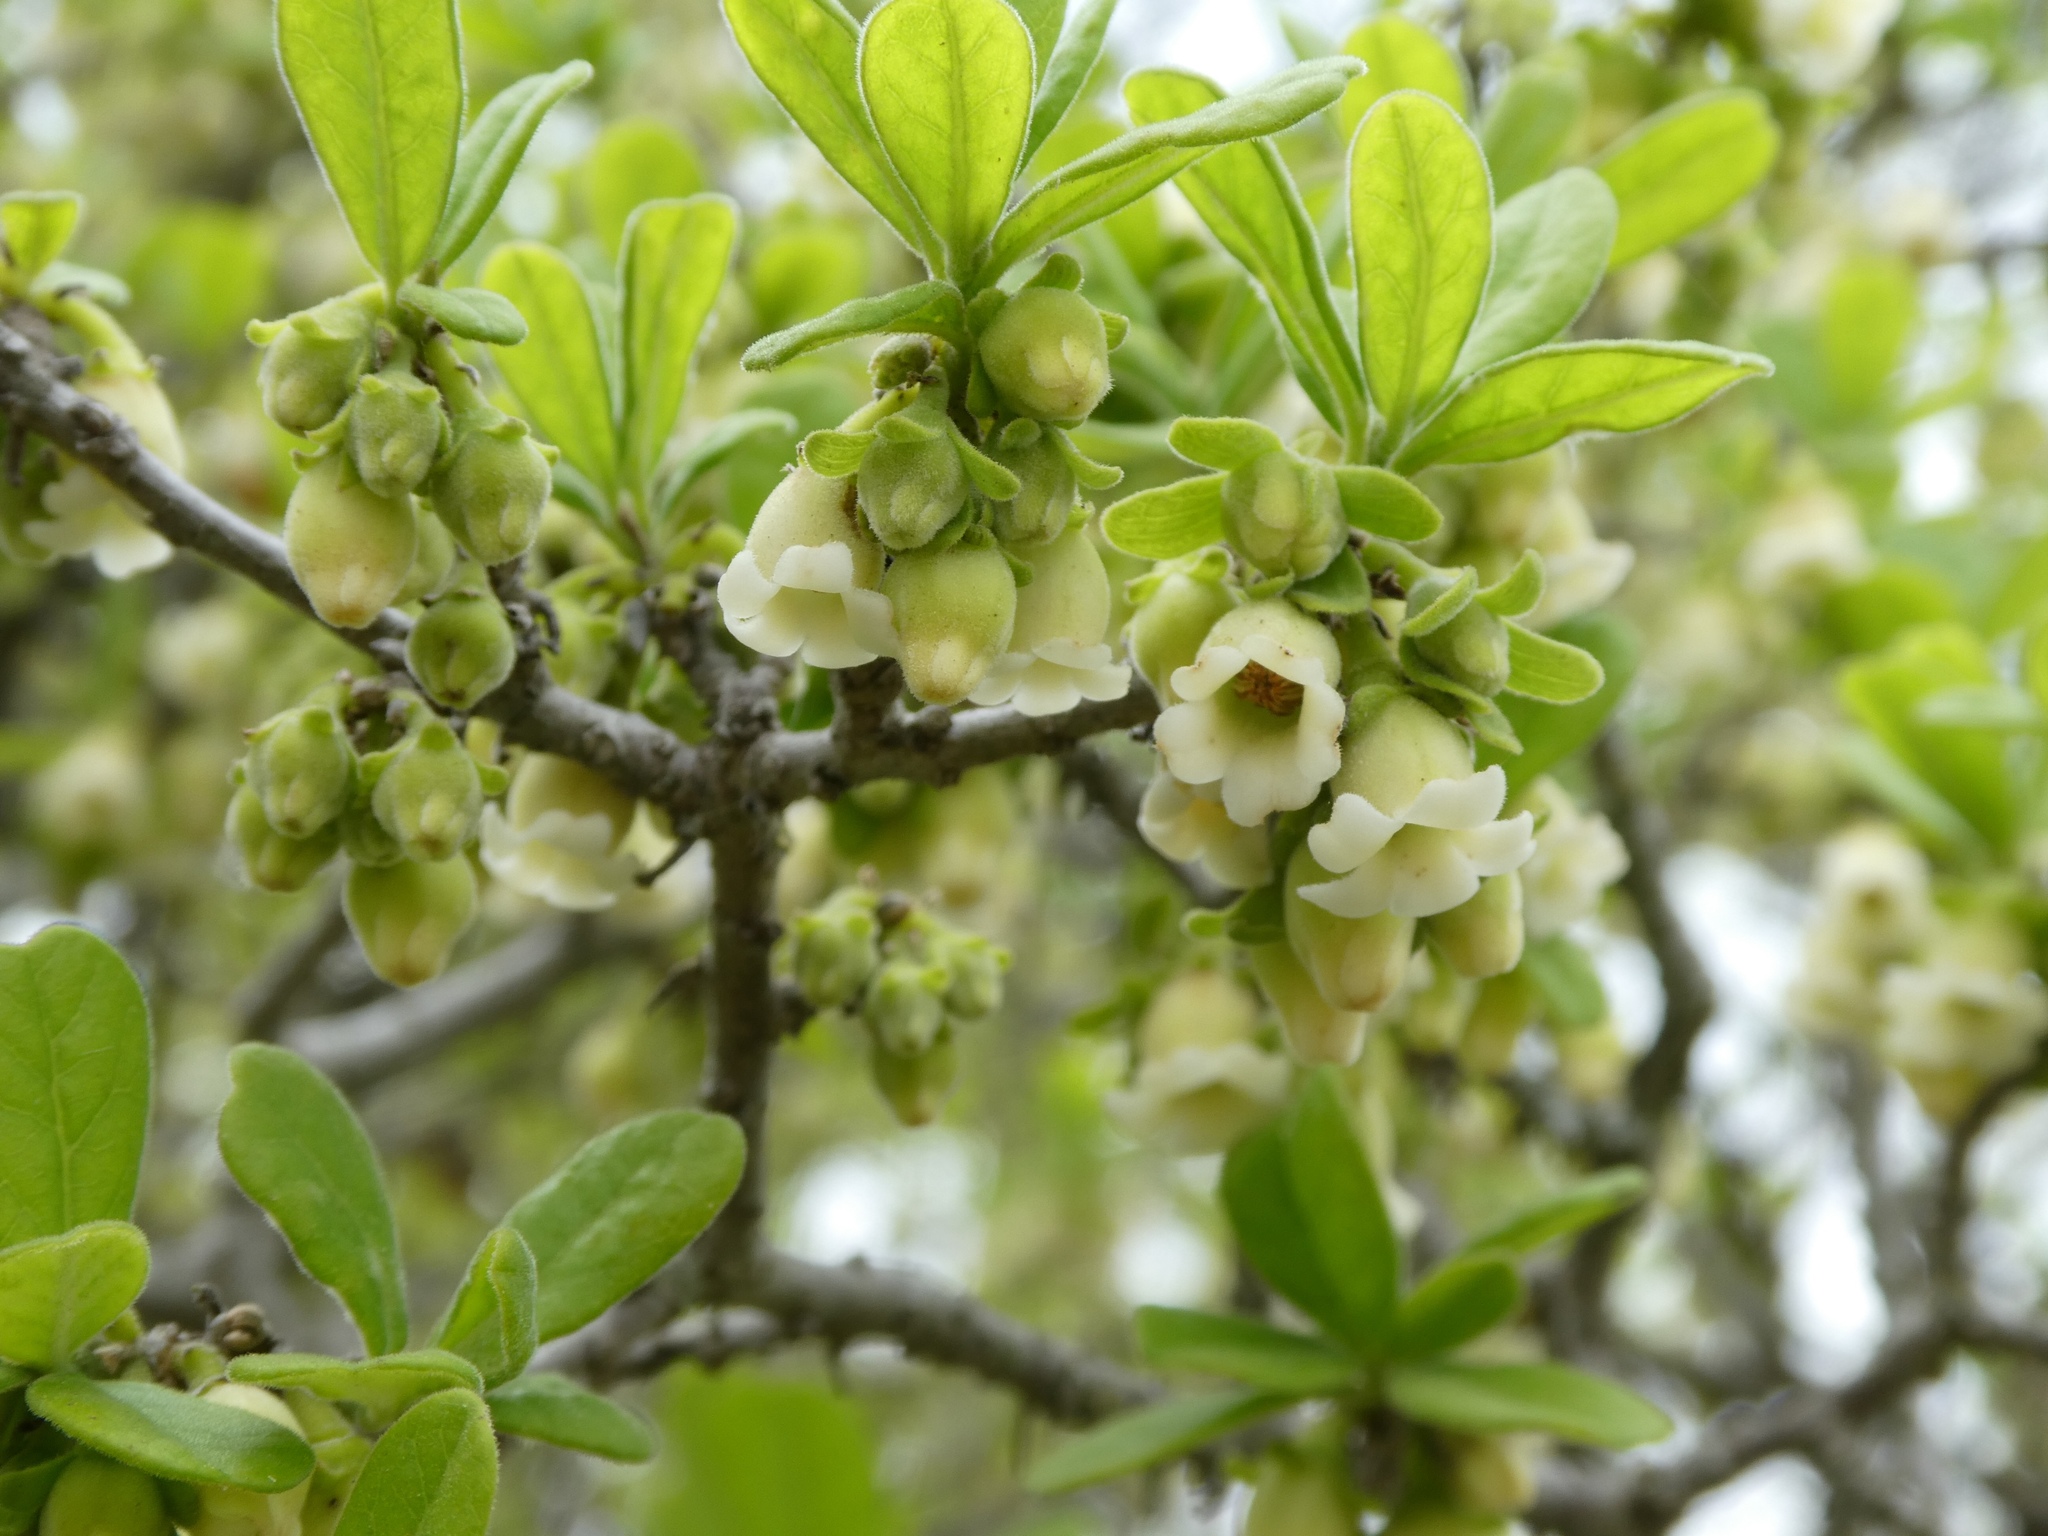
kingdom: Plantae
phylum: Tracheophyta
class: Magnoliopsida
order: Ericales
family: Ebenaceae
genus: Diospyros
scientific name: Diospyros texana
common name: Texas persimmon
